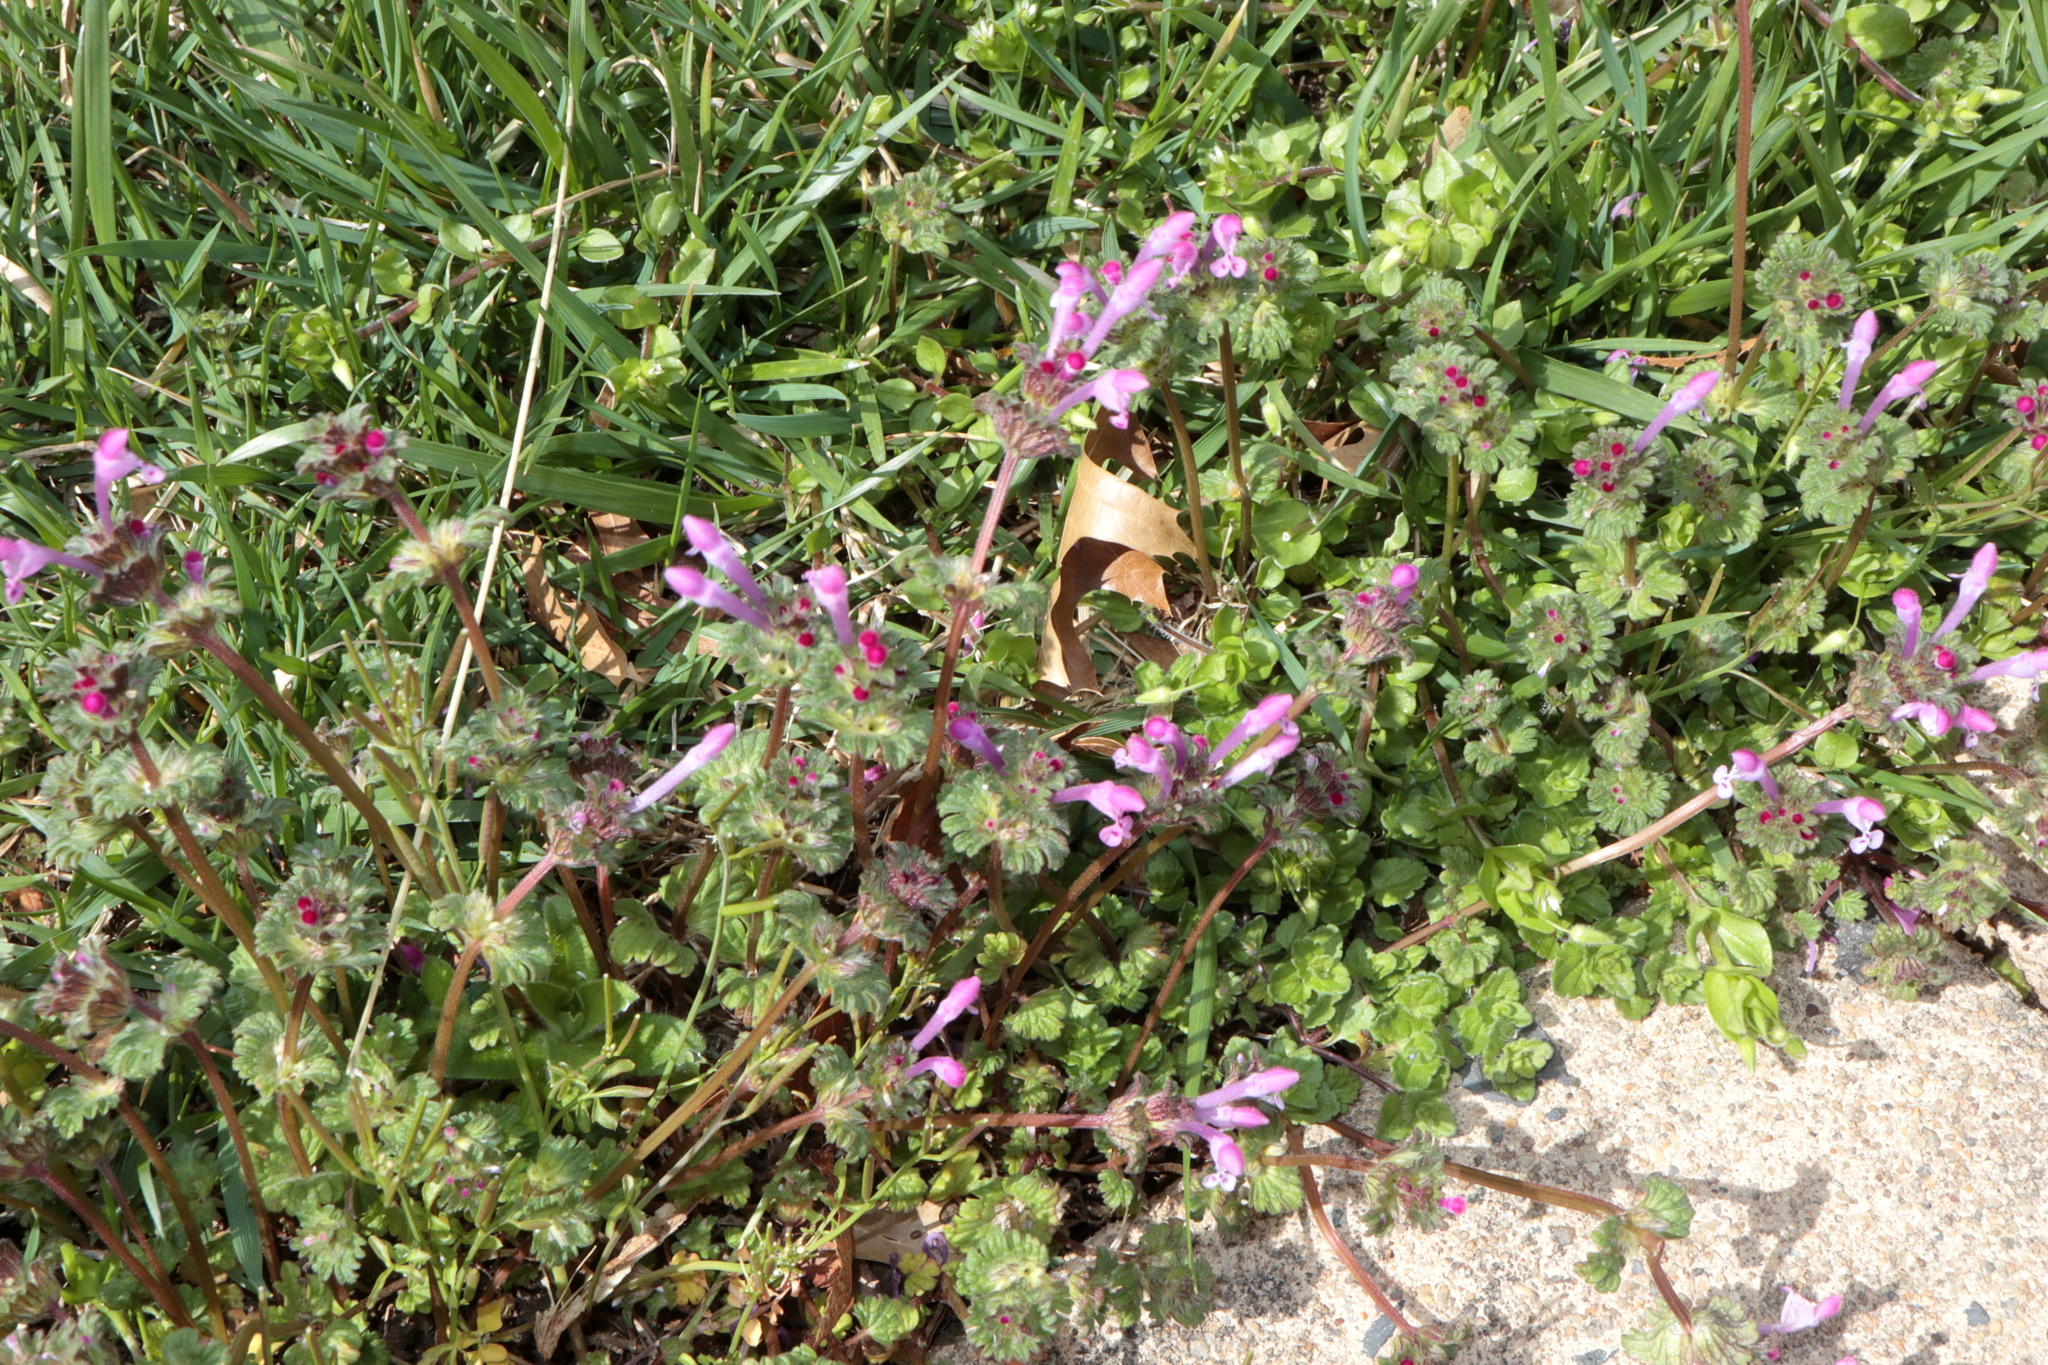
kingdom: Plantae
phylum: Tracheophyta
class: Magnoliopsida
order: Lamiales
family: Lamiaceae
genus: Lamium
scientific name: Lamium amplexicaule
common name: Henbit dead-nettle
